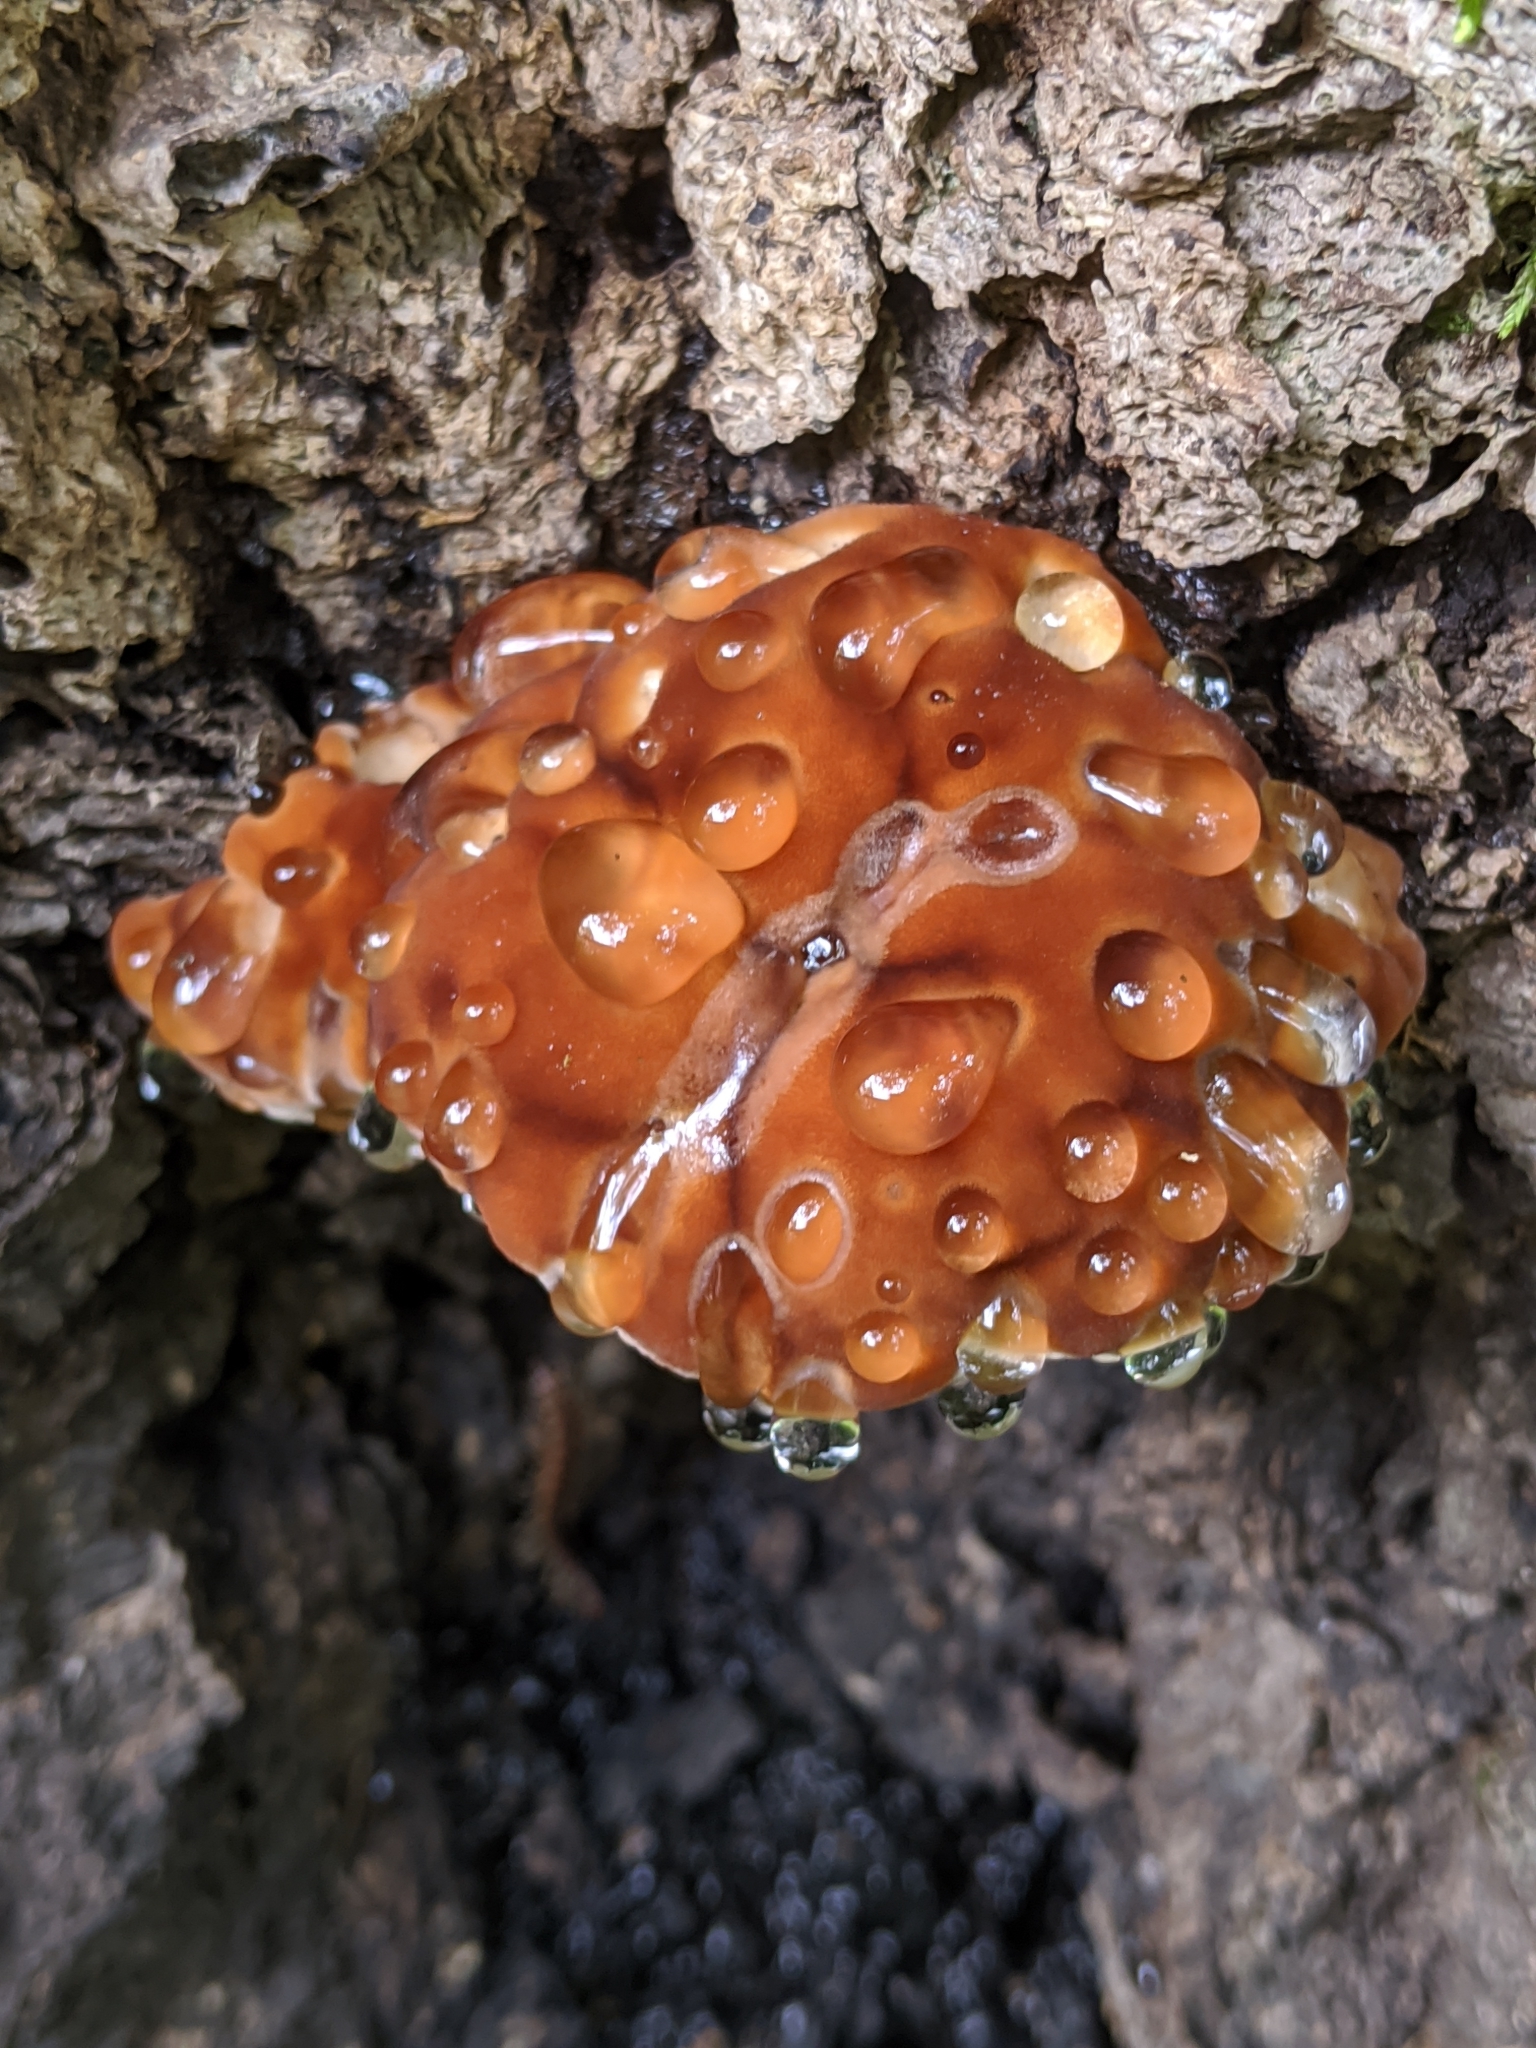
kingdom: Fungi
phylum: Basidiomycota
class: Agaricomycetes
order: Polyporales
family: Fomitopsidaceae
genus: Niveoporofomes
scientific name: Niveoporofomes spraguei
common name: Green cheese polypore
